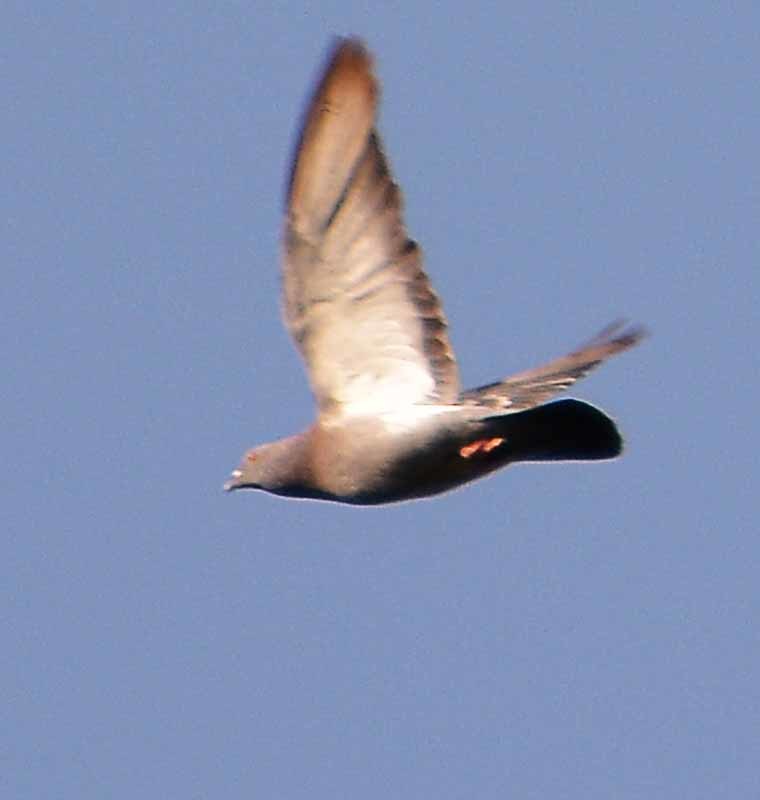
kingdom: Animalia
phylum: Chordata
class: Aves
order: Columbiformes
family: Columbidae
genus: Columba
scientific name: Columba livia
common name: Rock pigeon
